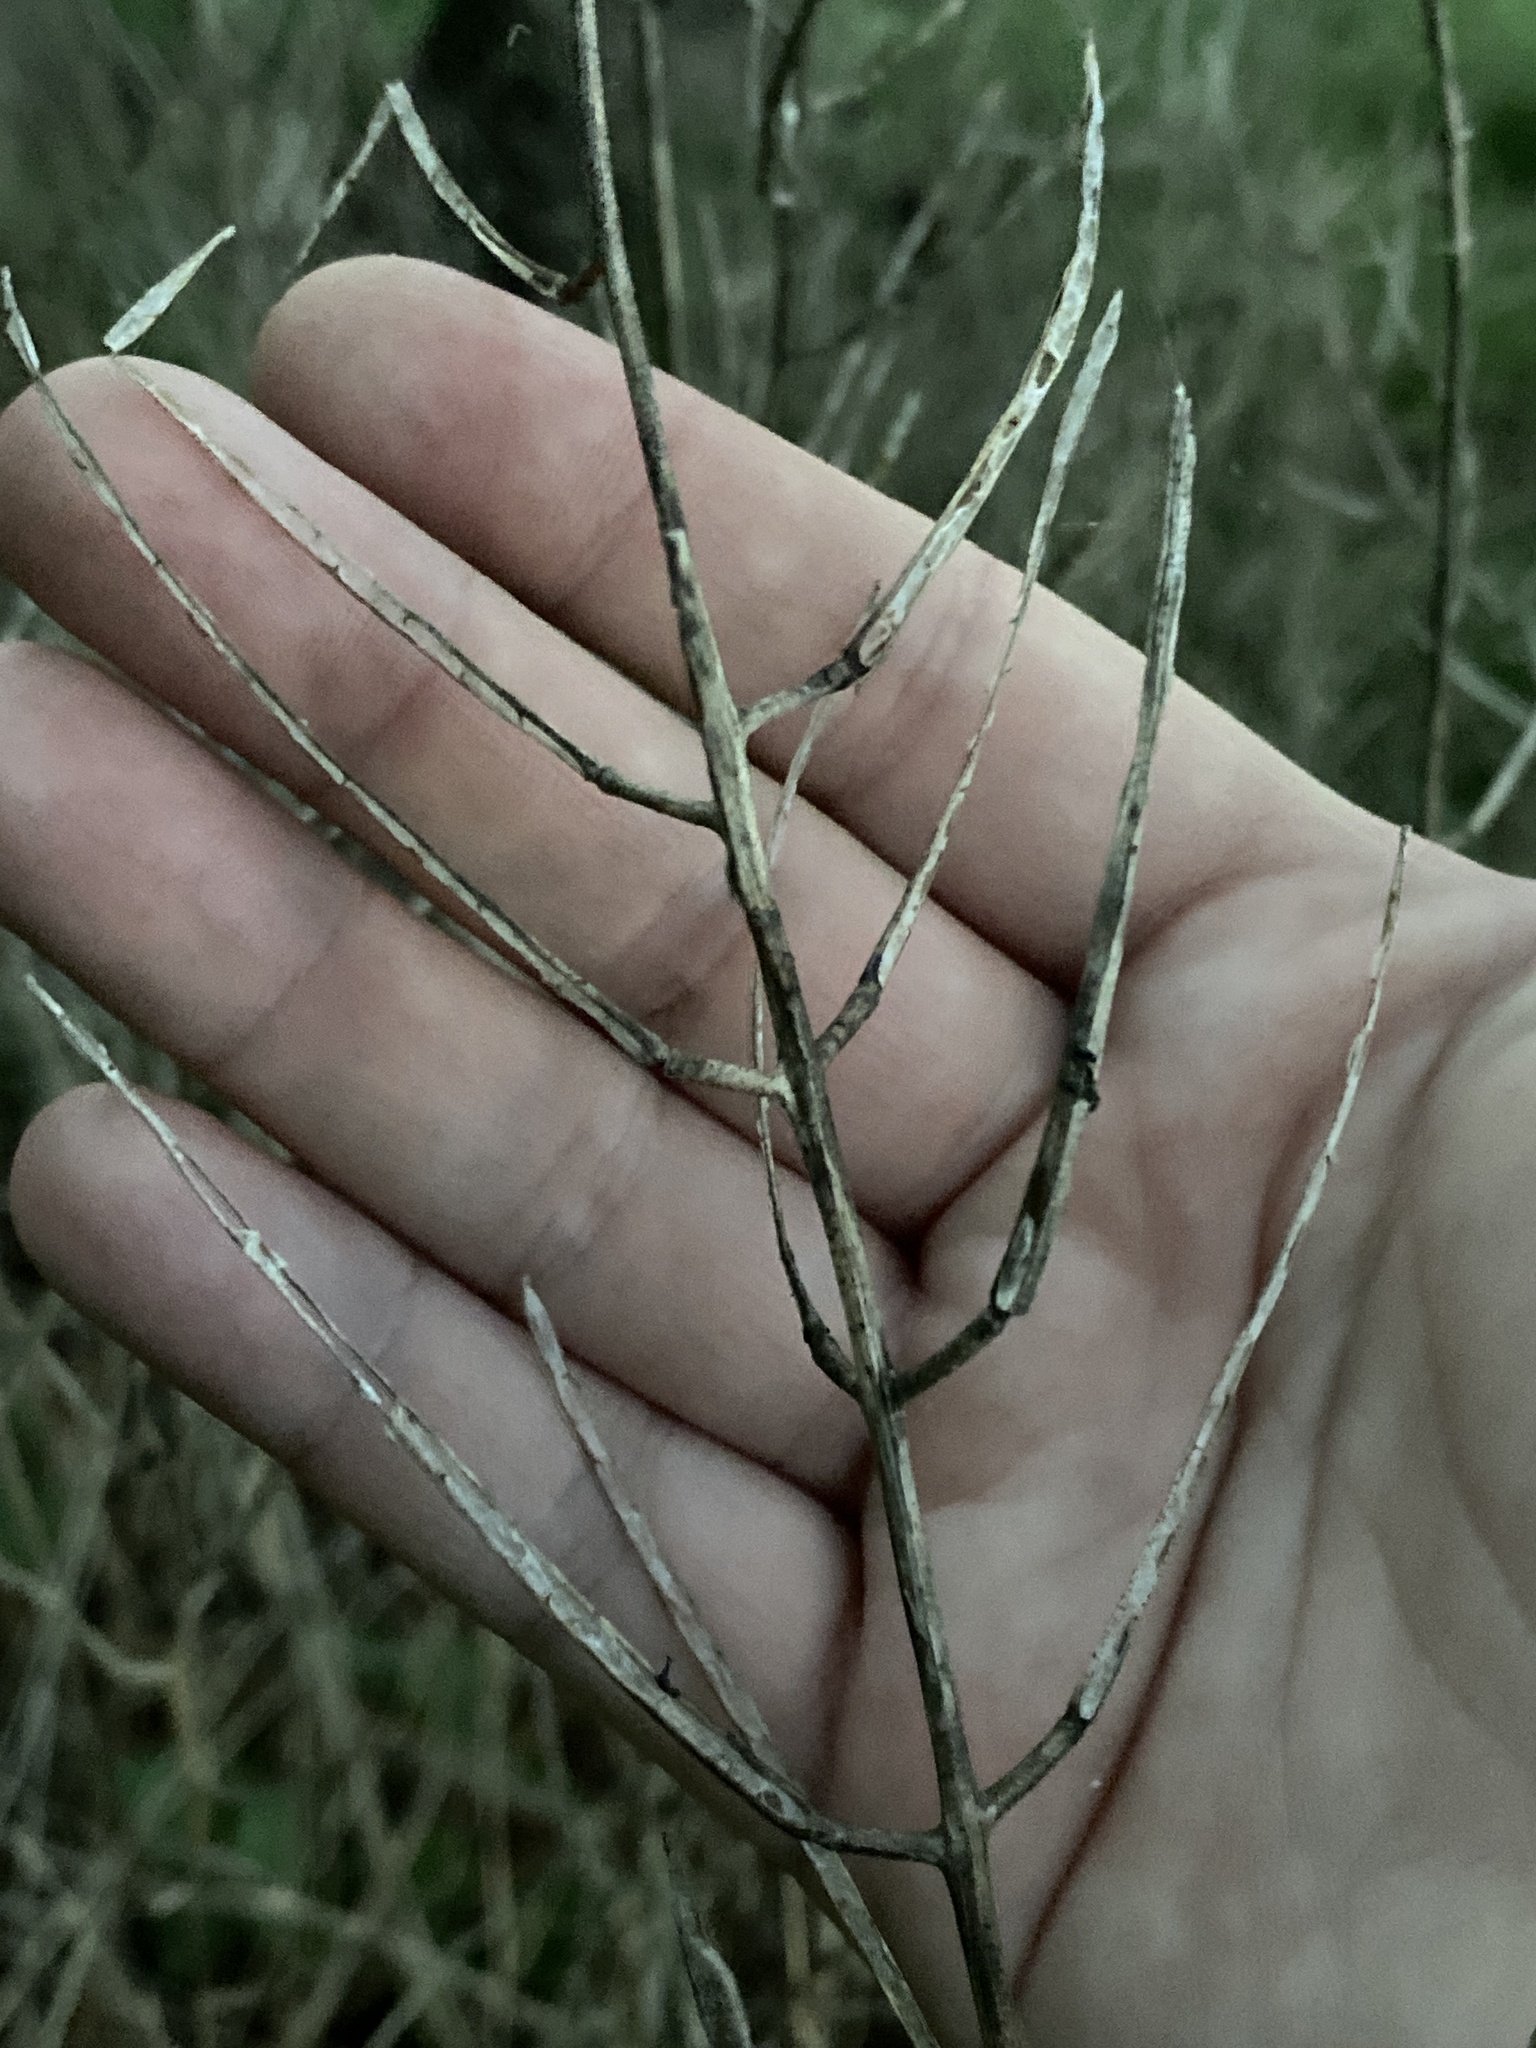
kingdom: Plantae
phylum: Tracheophyta
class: Magnoliopsida
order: Brassicales
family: Brassicaceae
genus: Alliaria
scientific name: Alliaria petiolata
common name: Garlic mustard
